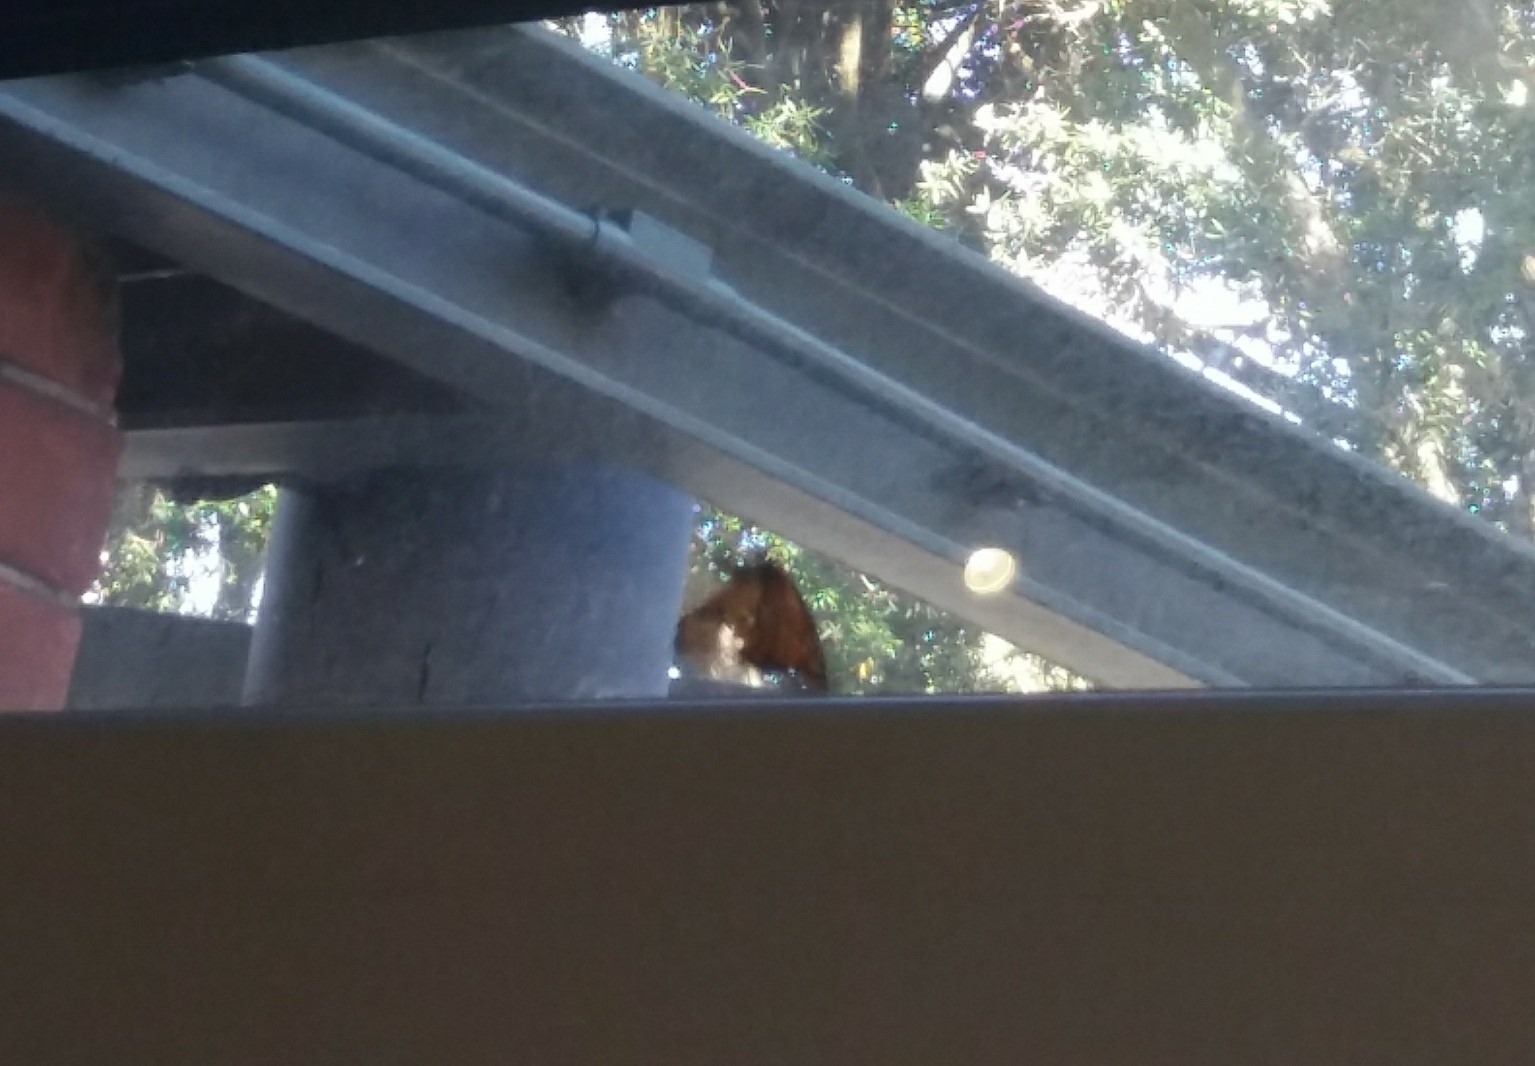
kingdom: Animalia
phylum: Arthropoda
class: Insecta
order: Lepidoptera
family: Nymphalidae
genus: Danaus
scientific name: Danaus plexippus
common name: Monarch
